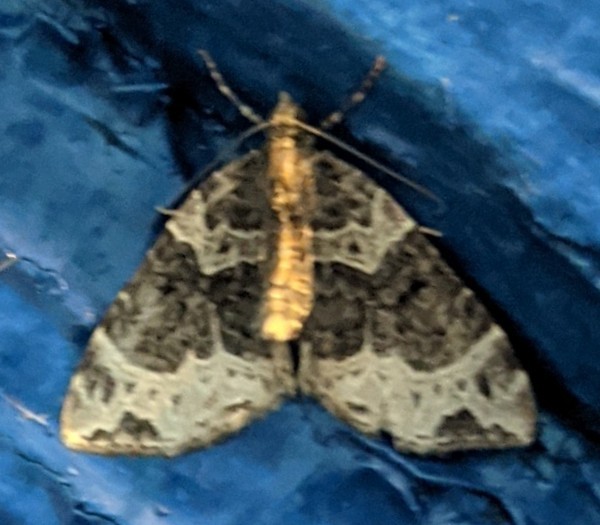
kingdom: Animalia
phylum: Arthropoda
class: Insecta
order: Lepidoptera
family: Geometridae
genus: Ecliptopera
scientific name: Ecliptopera silaceata
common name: Small phoenix
